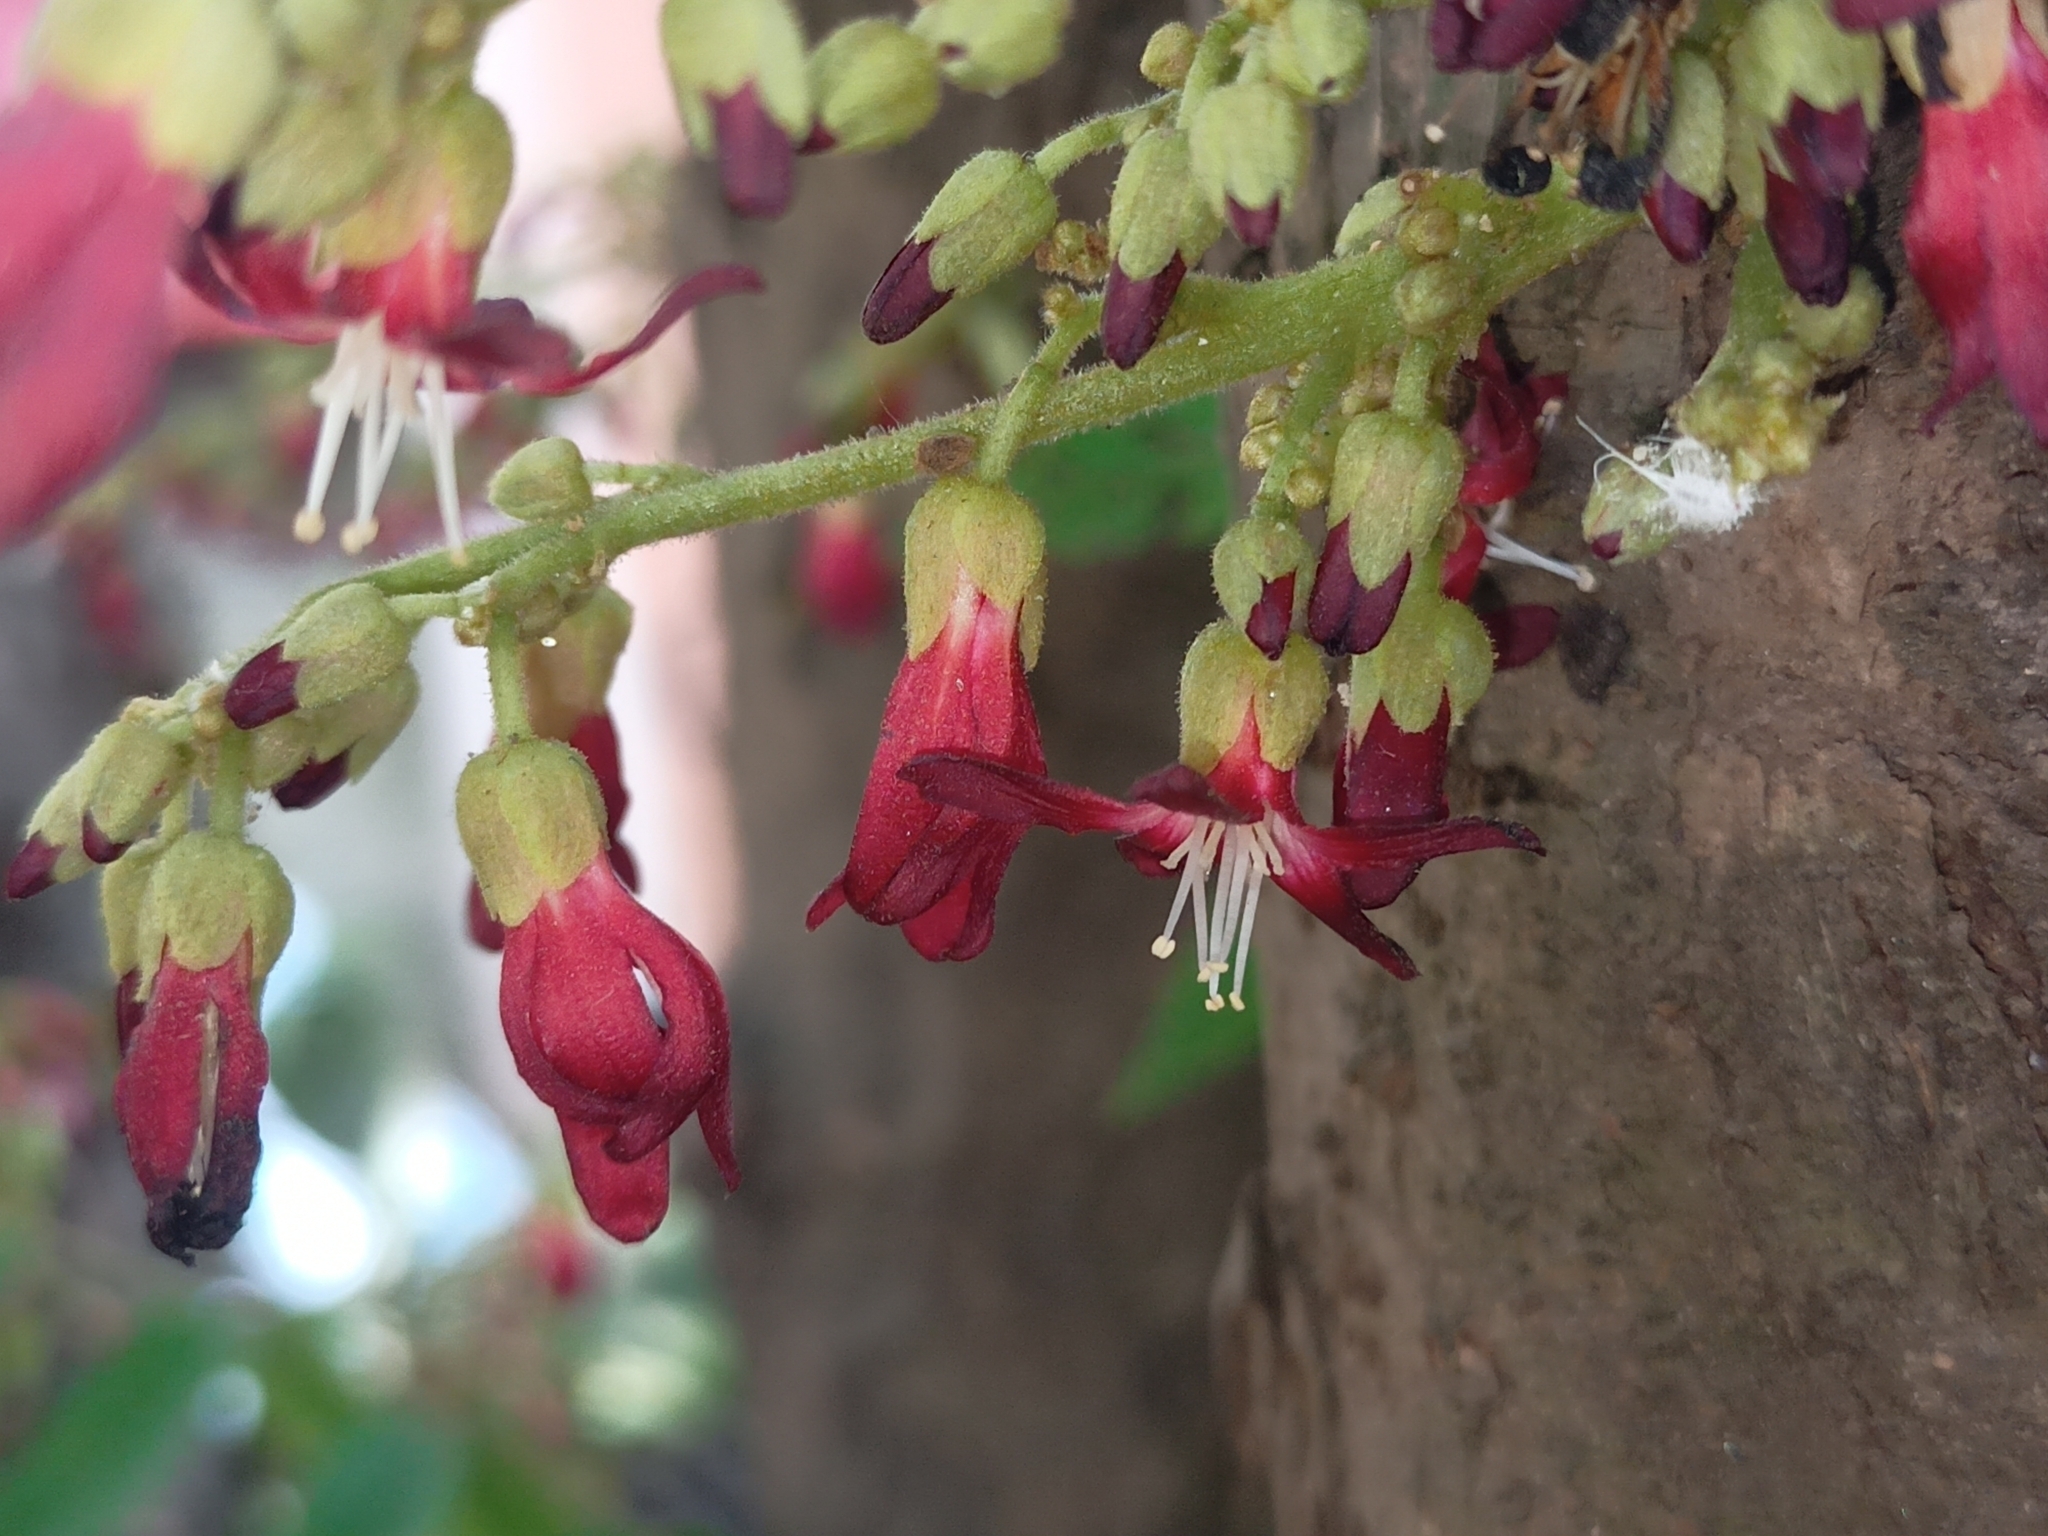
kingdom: Plantae
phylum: Tracheophyta
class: Magnoliopsida
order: Oxalidales
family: Oxalidaceae
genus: Averrhoa
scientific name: Averrhoa bilimbi
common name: Bilimbi
